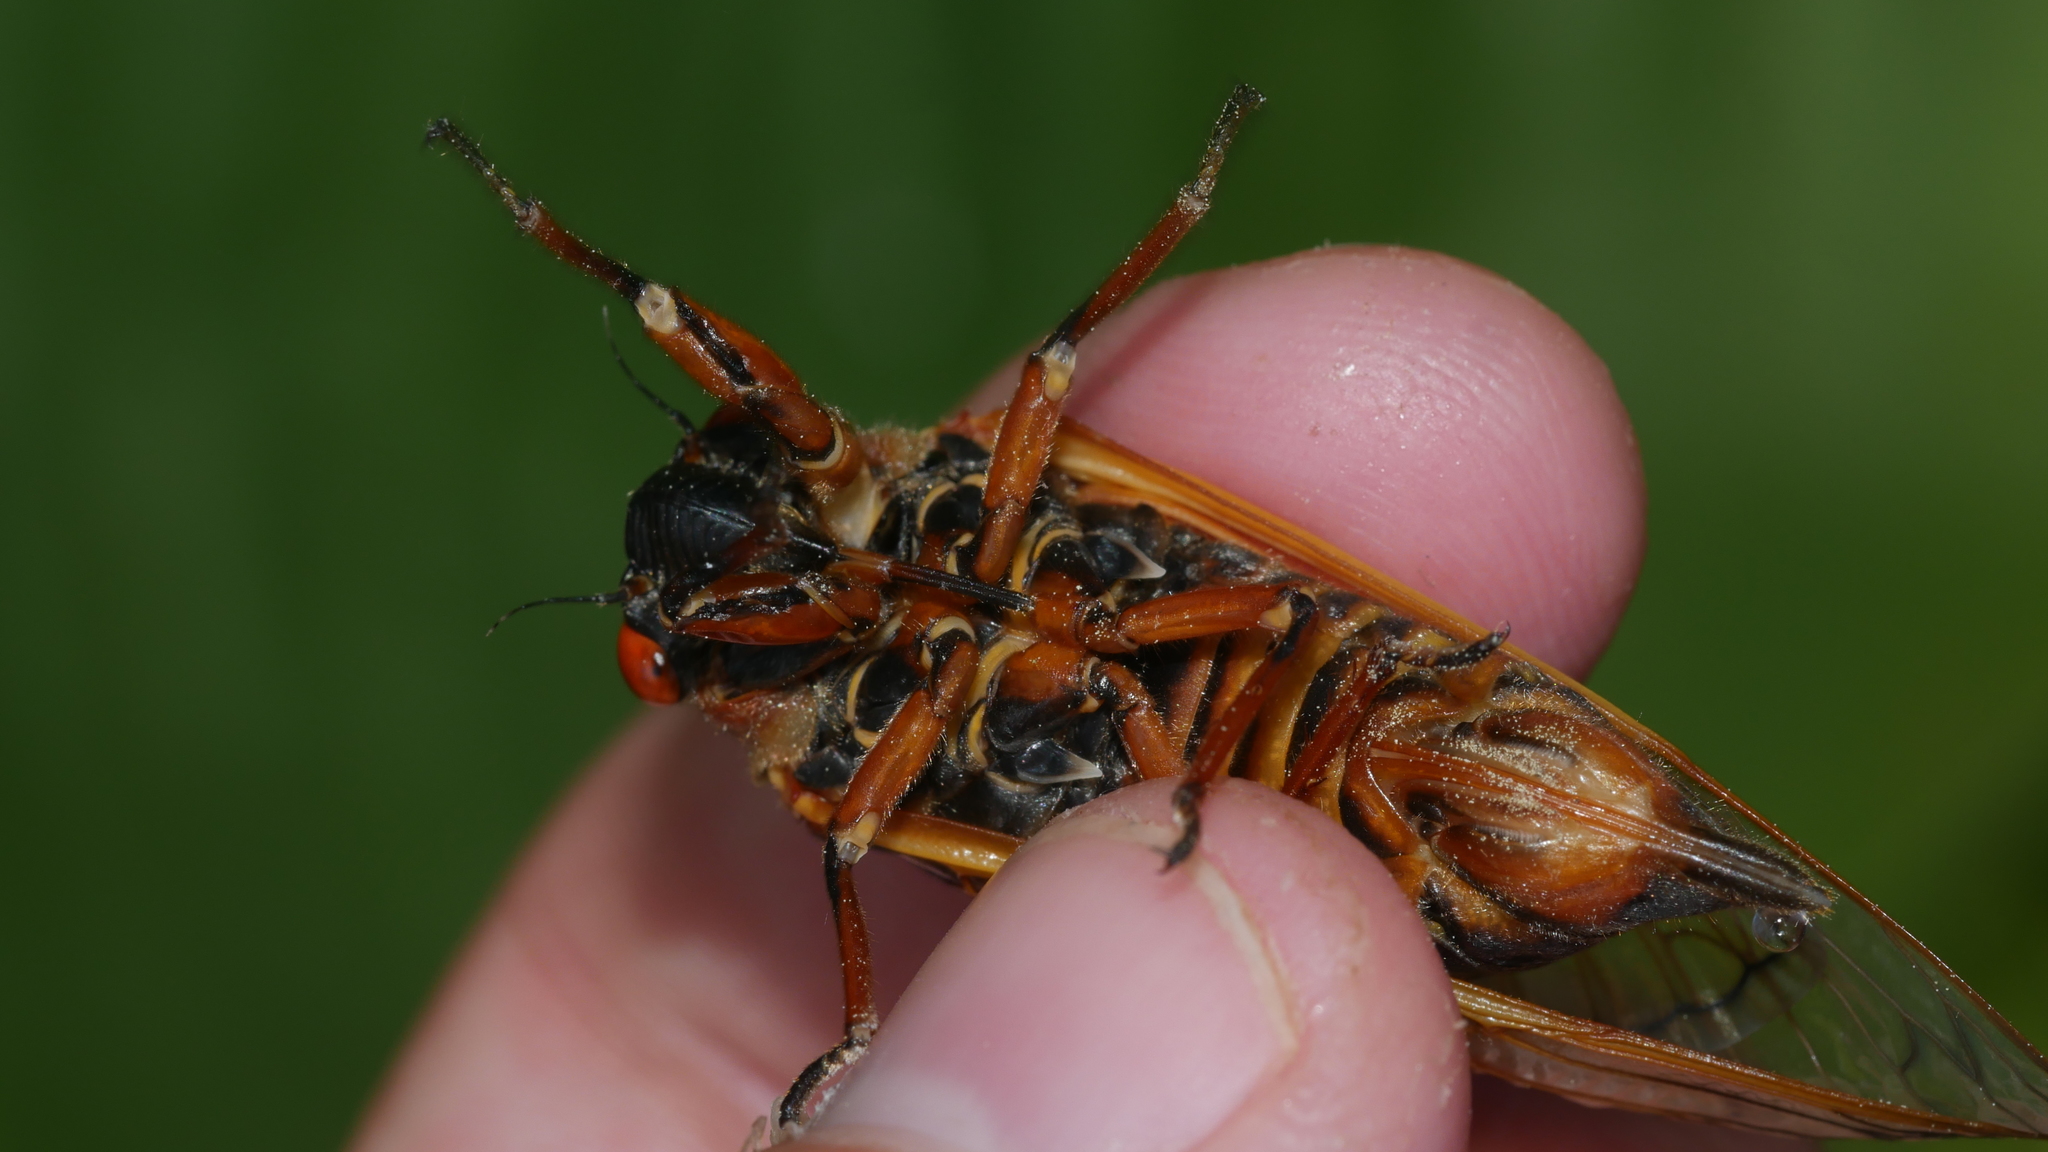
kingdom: Animalia
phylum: Arthropoda
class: Insecta
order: Hemiptera
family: Cicadidae
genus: Magicicada
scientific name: Magicicada septendecim
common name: Periodical cicada
